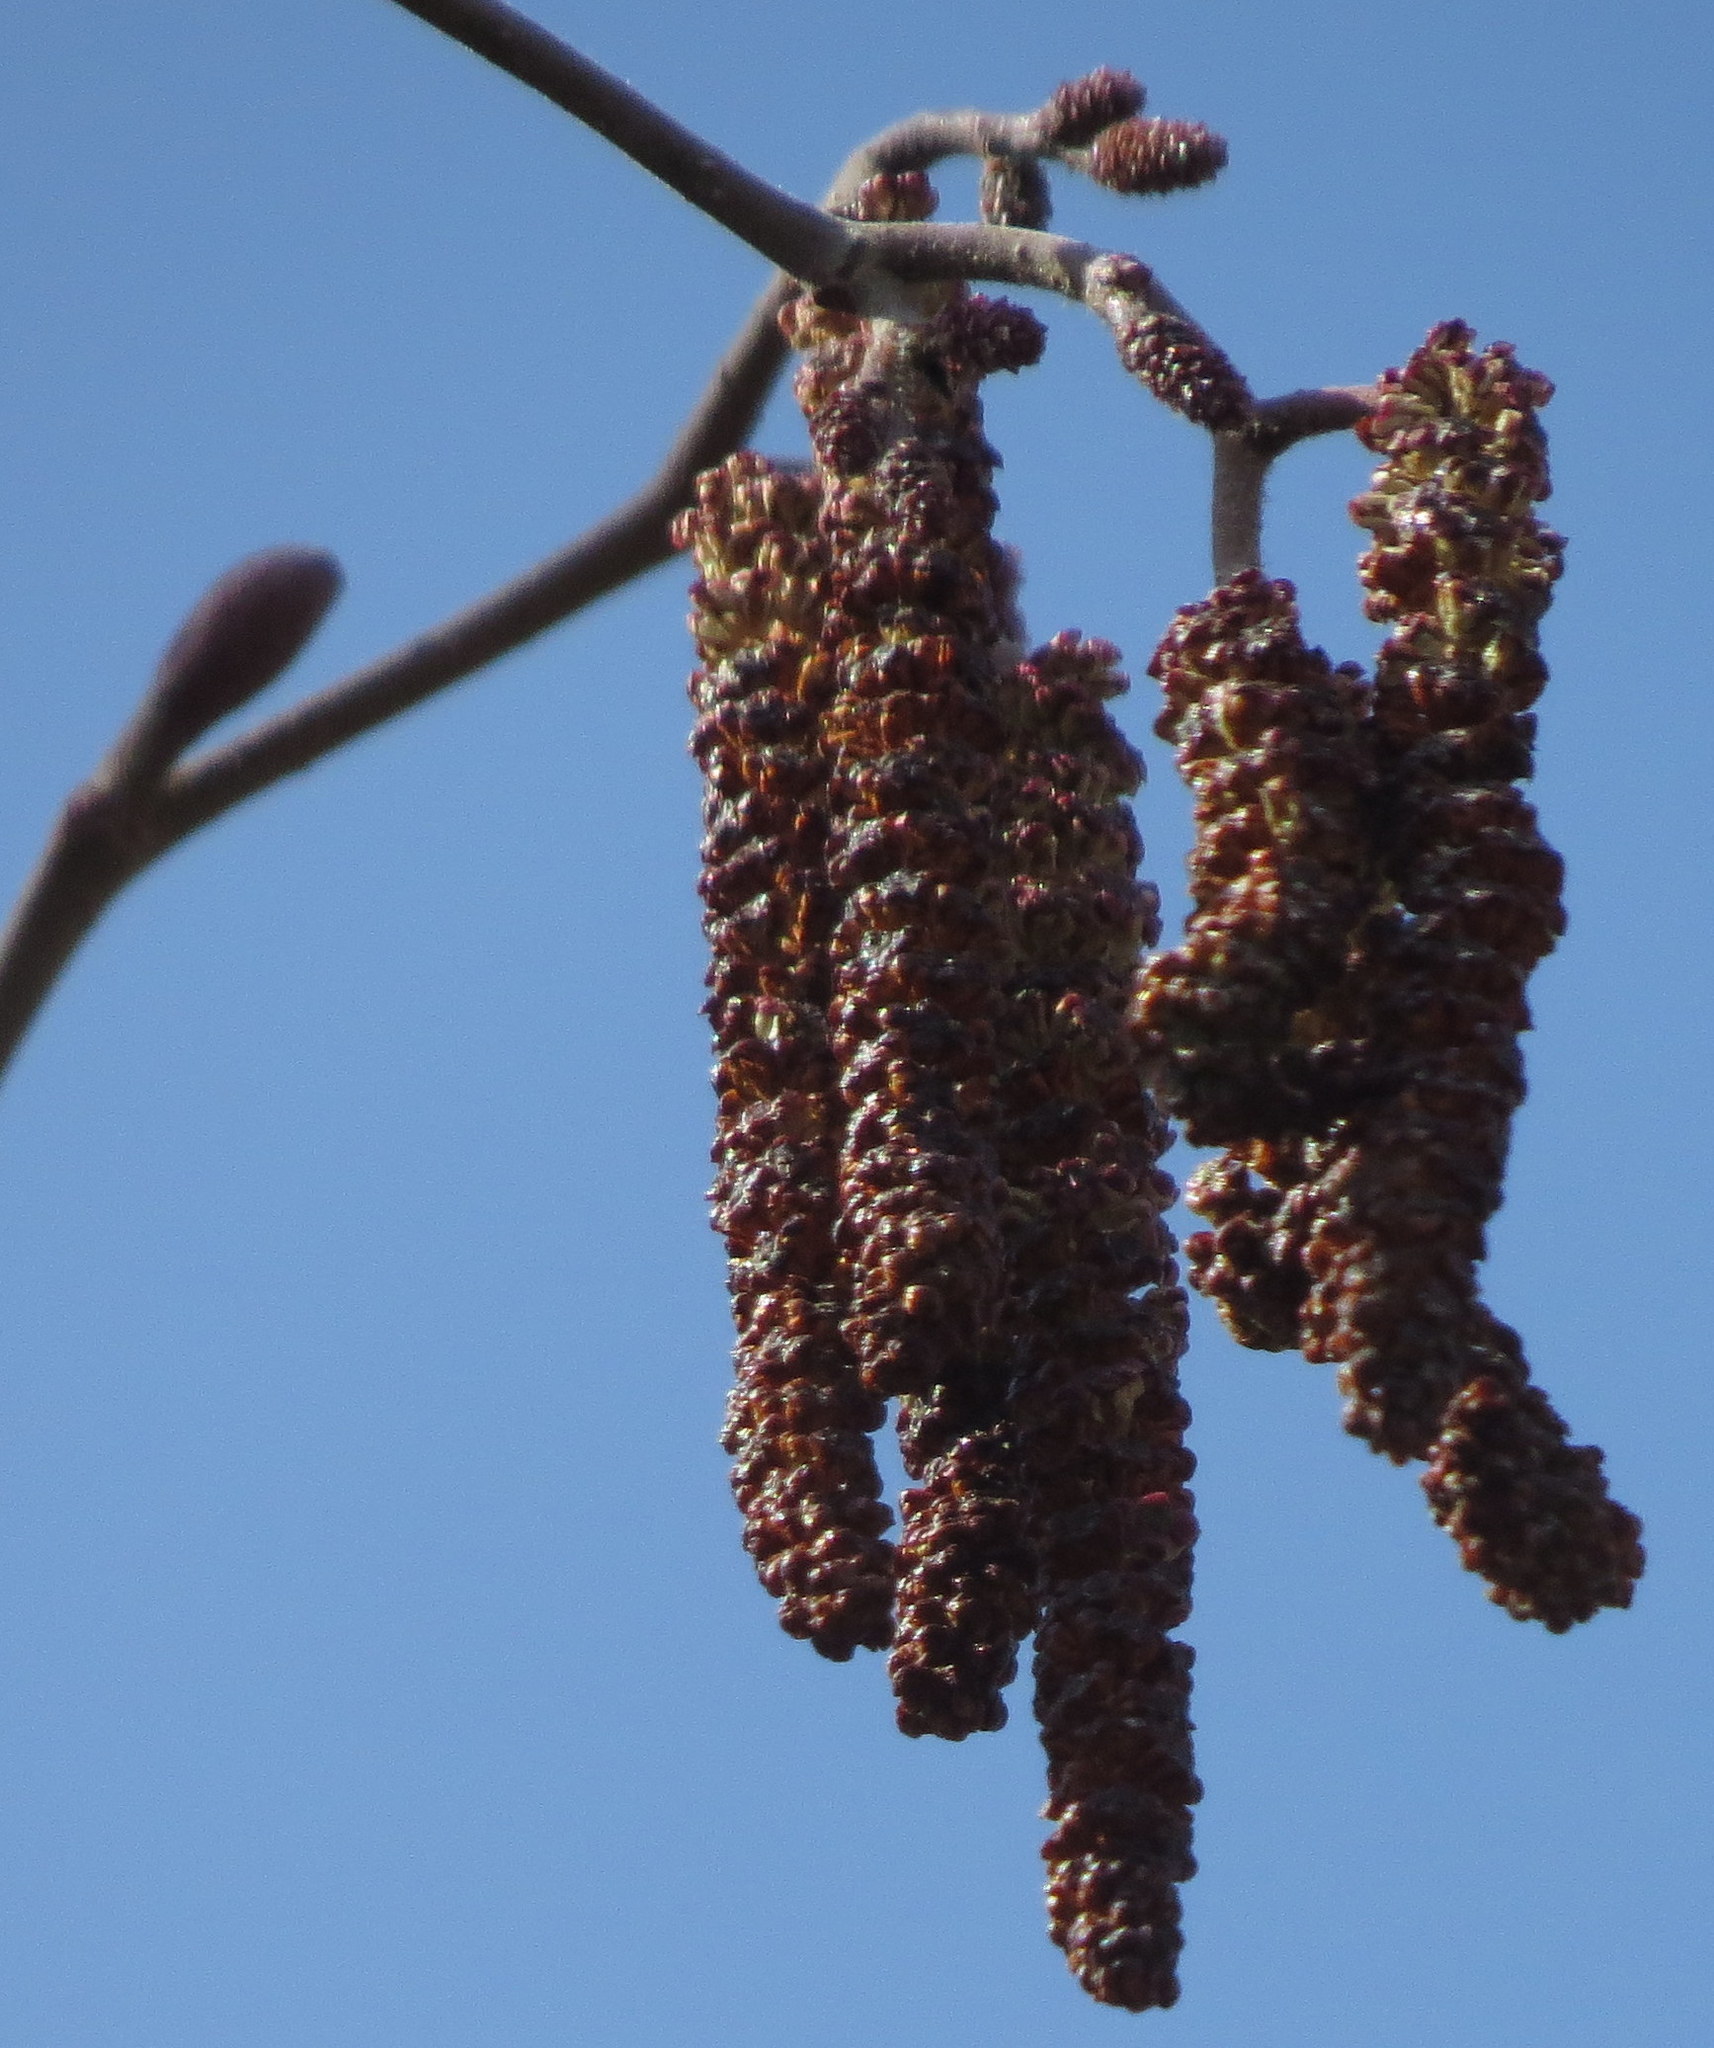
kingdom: Plantae
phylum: Tracheophyta
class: Magnoliopsida
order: Fagales
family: Betulaceae
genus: Alnus
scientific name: Alnus incana
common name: Grey alder
